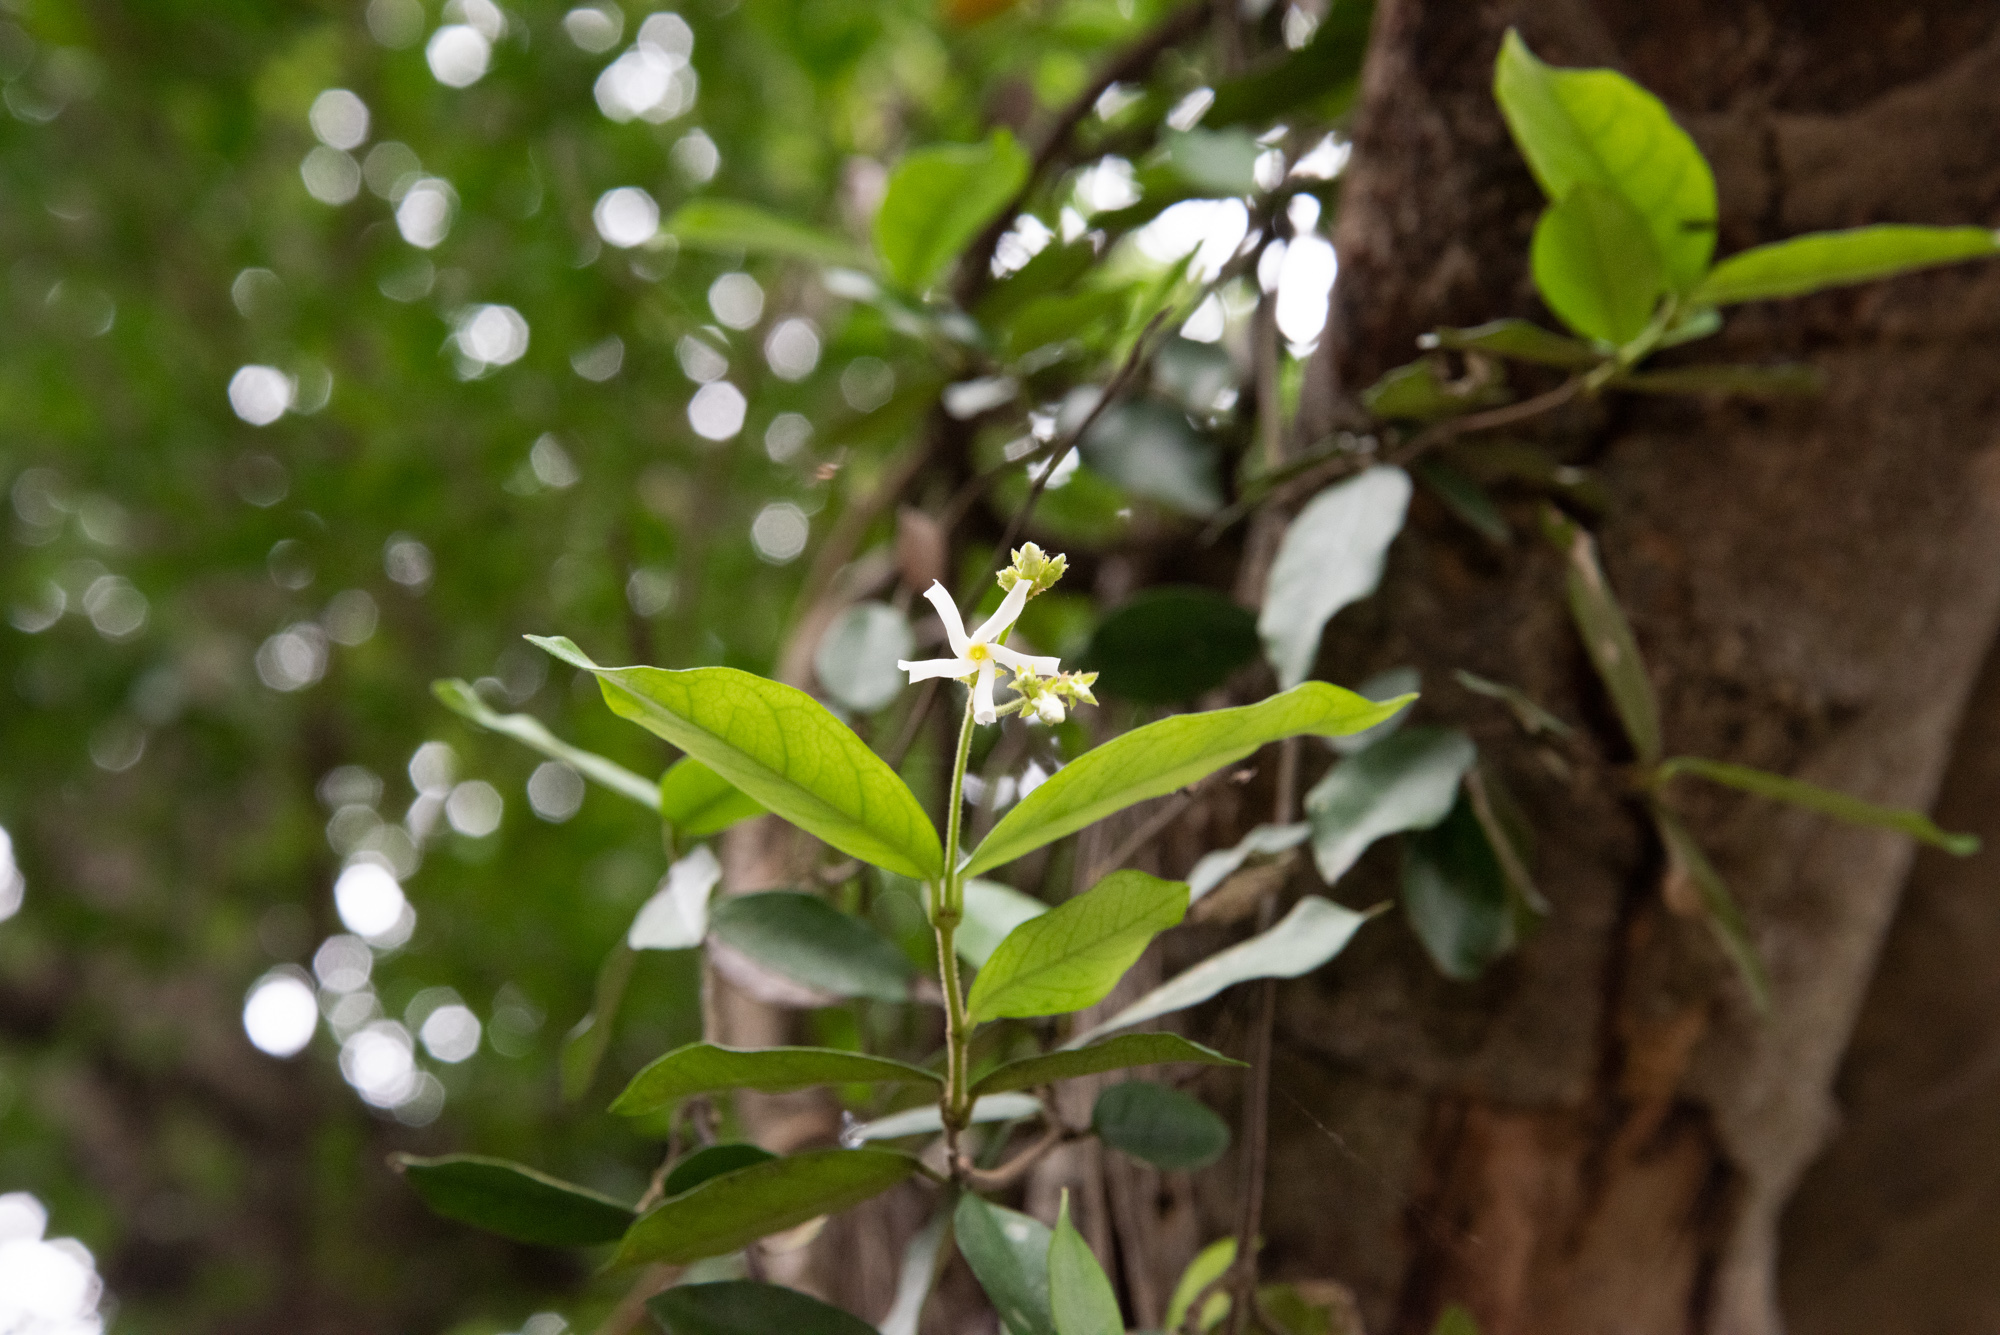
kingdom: Plantae
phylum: Tracheophyta
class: Magnoliopsida
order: Gentianales
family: Apocynaceae
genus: Trachelospermum
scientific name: Trachelospermum jasminoides
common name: Confederate jasmine
